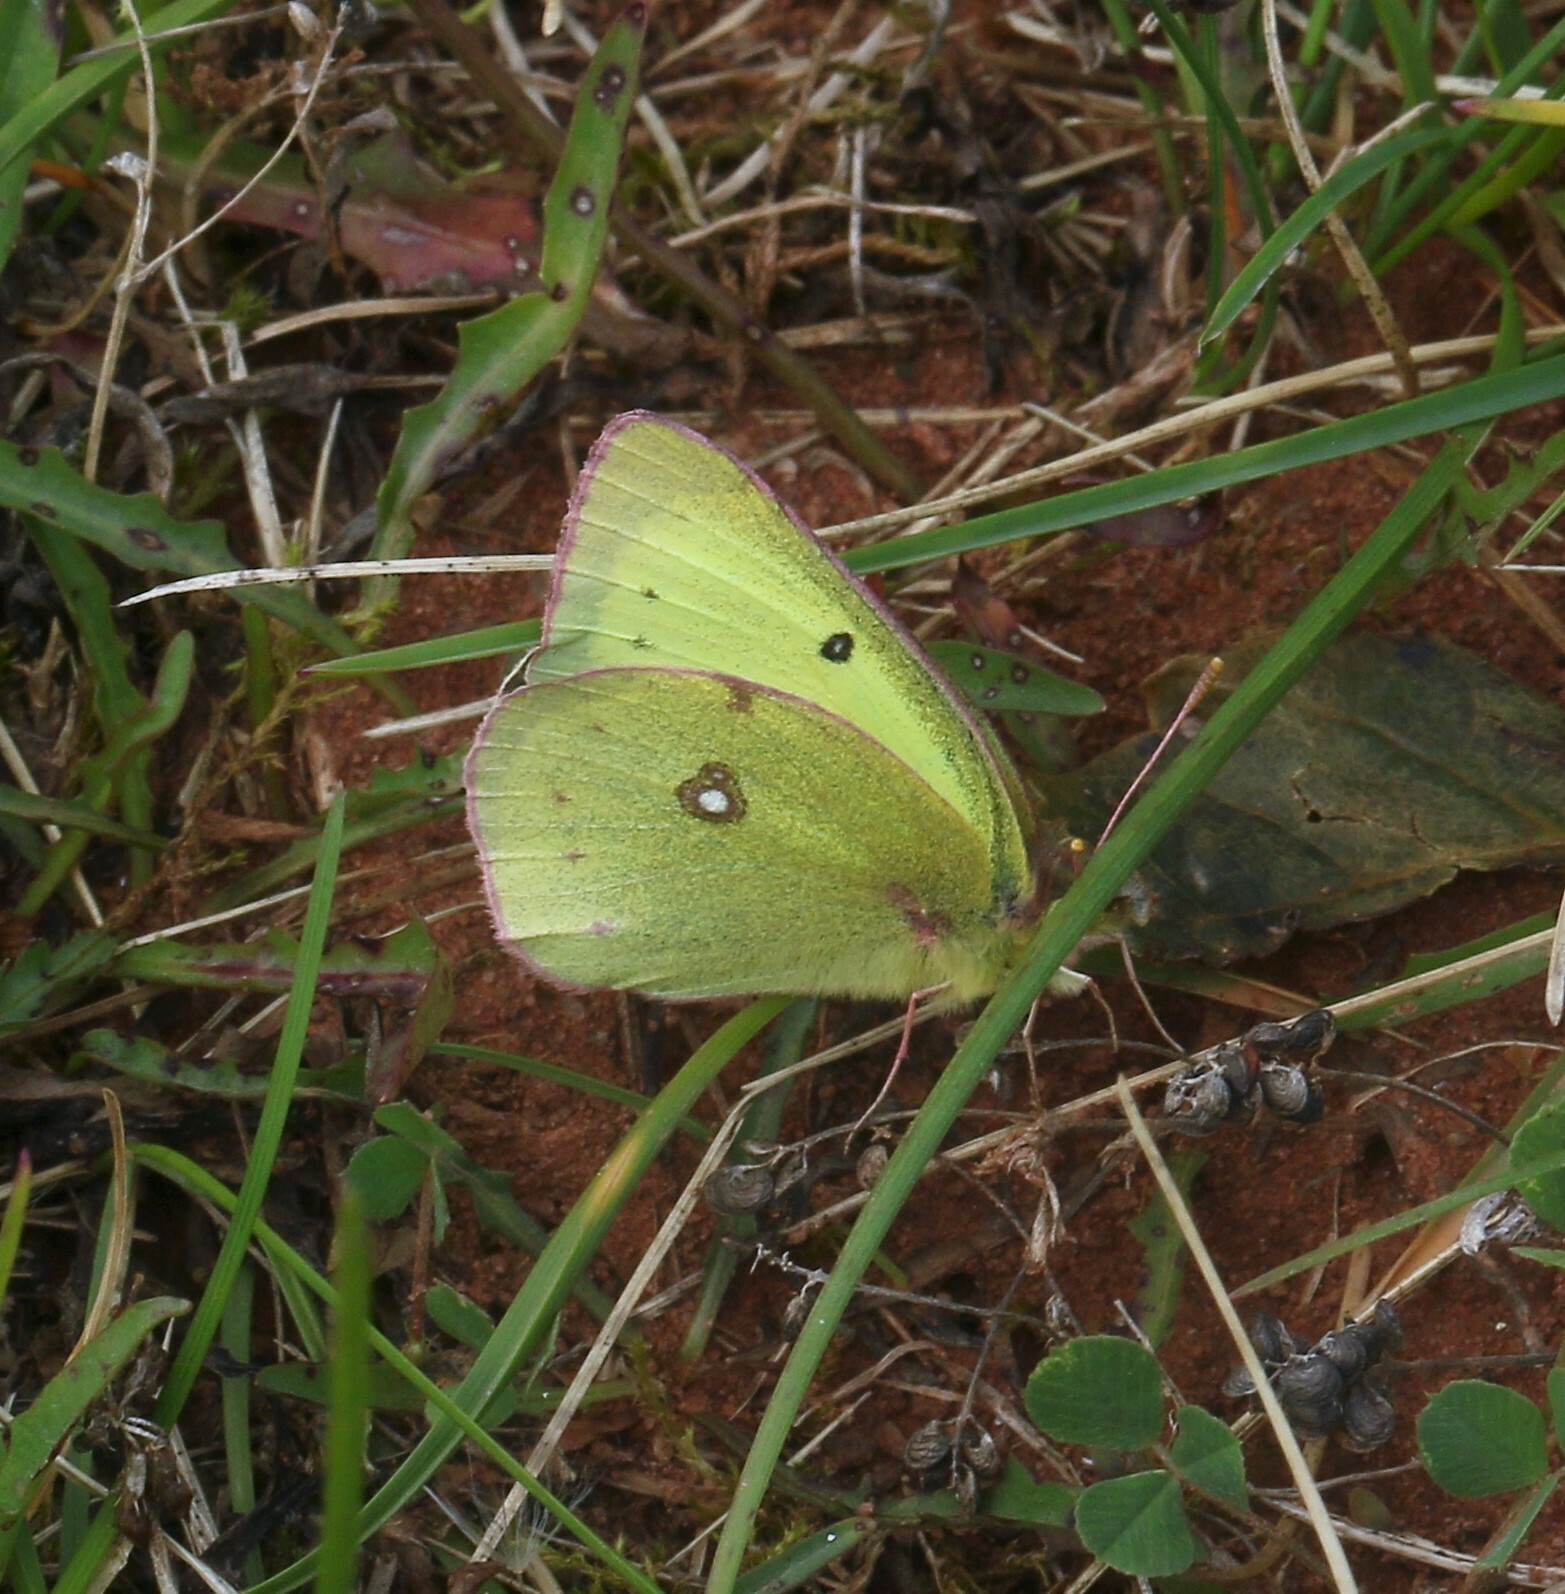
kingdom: Animalia
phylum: Arthropoda
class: Insecta
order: Lepidoptera
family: Pieridae
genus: Colias
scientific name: Colias philodice
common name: Clouded sulphur
